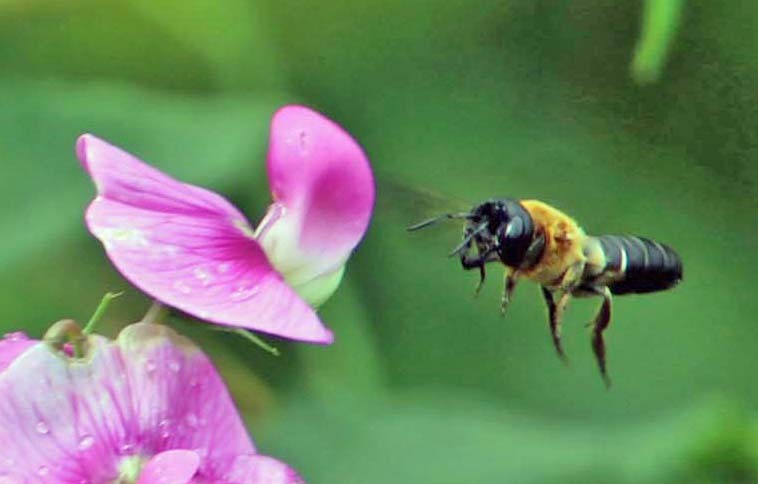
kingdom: Animalia
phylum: Arthropoda
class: Insecta
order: Hymenoptera
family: Megachilidae
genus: Megachile
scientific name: Megachile sculpturalis
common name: Sculptured resin bee
